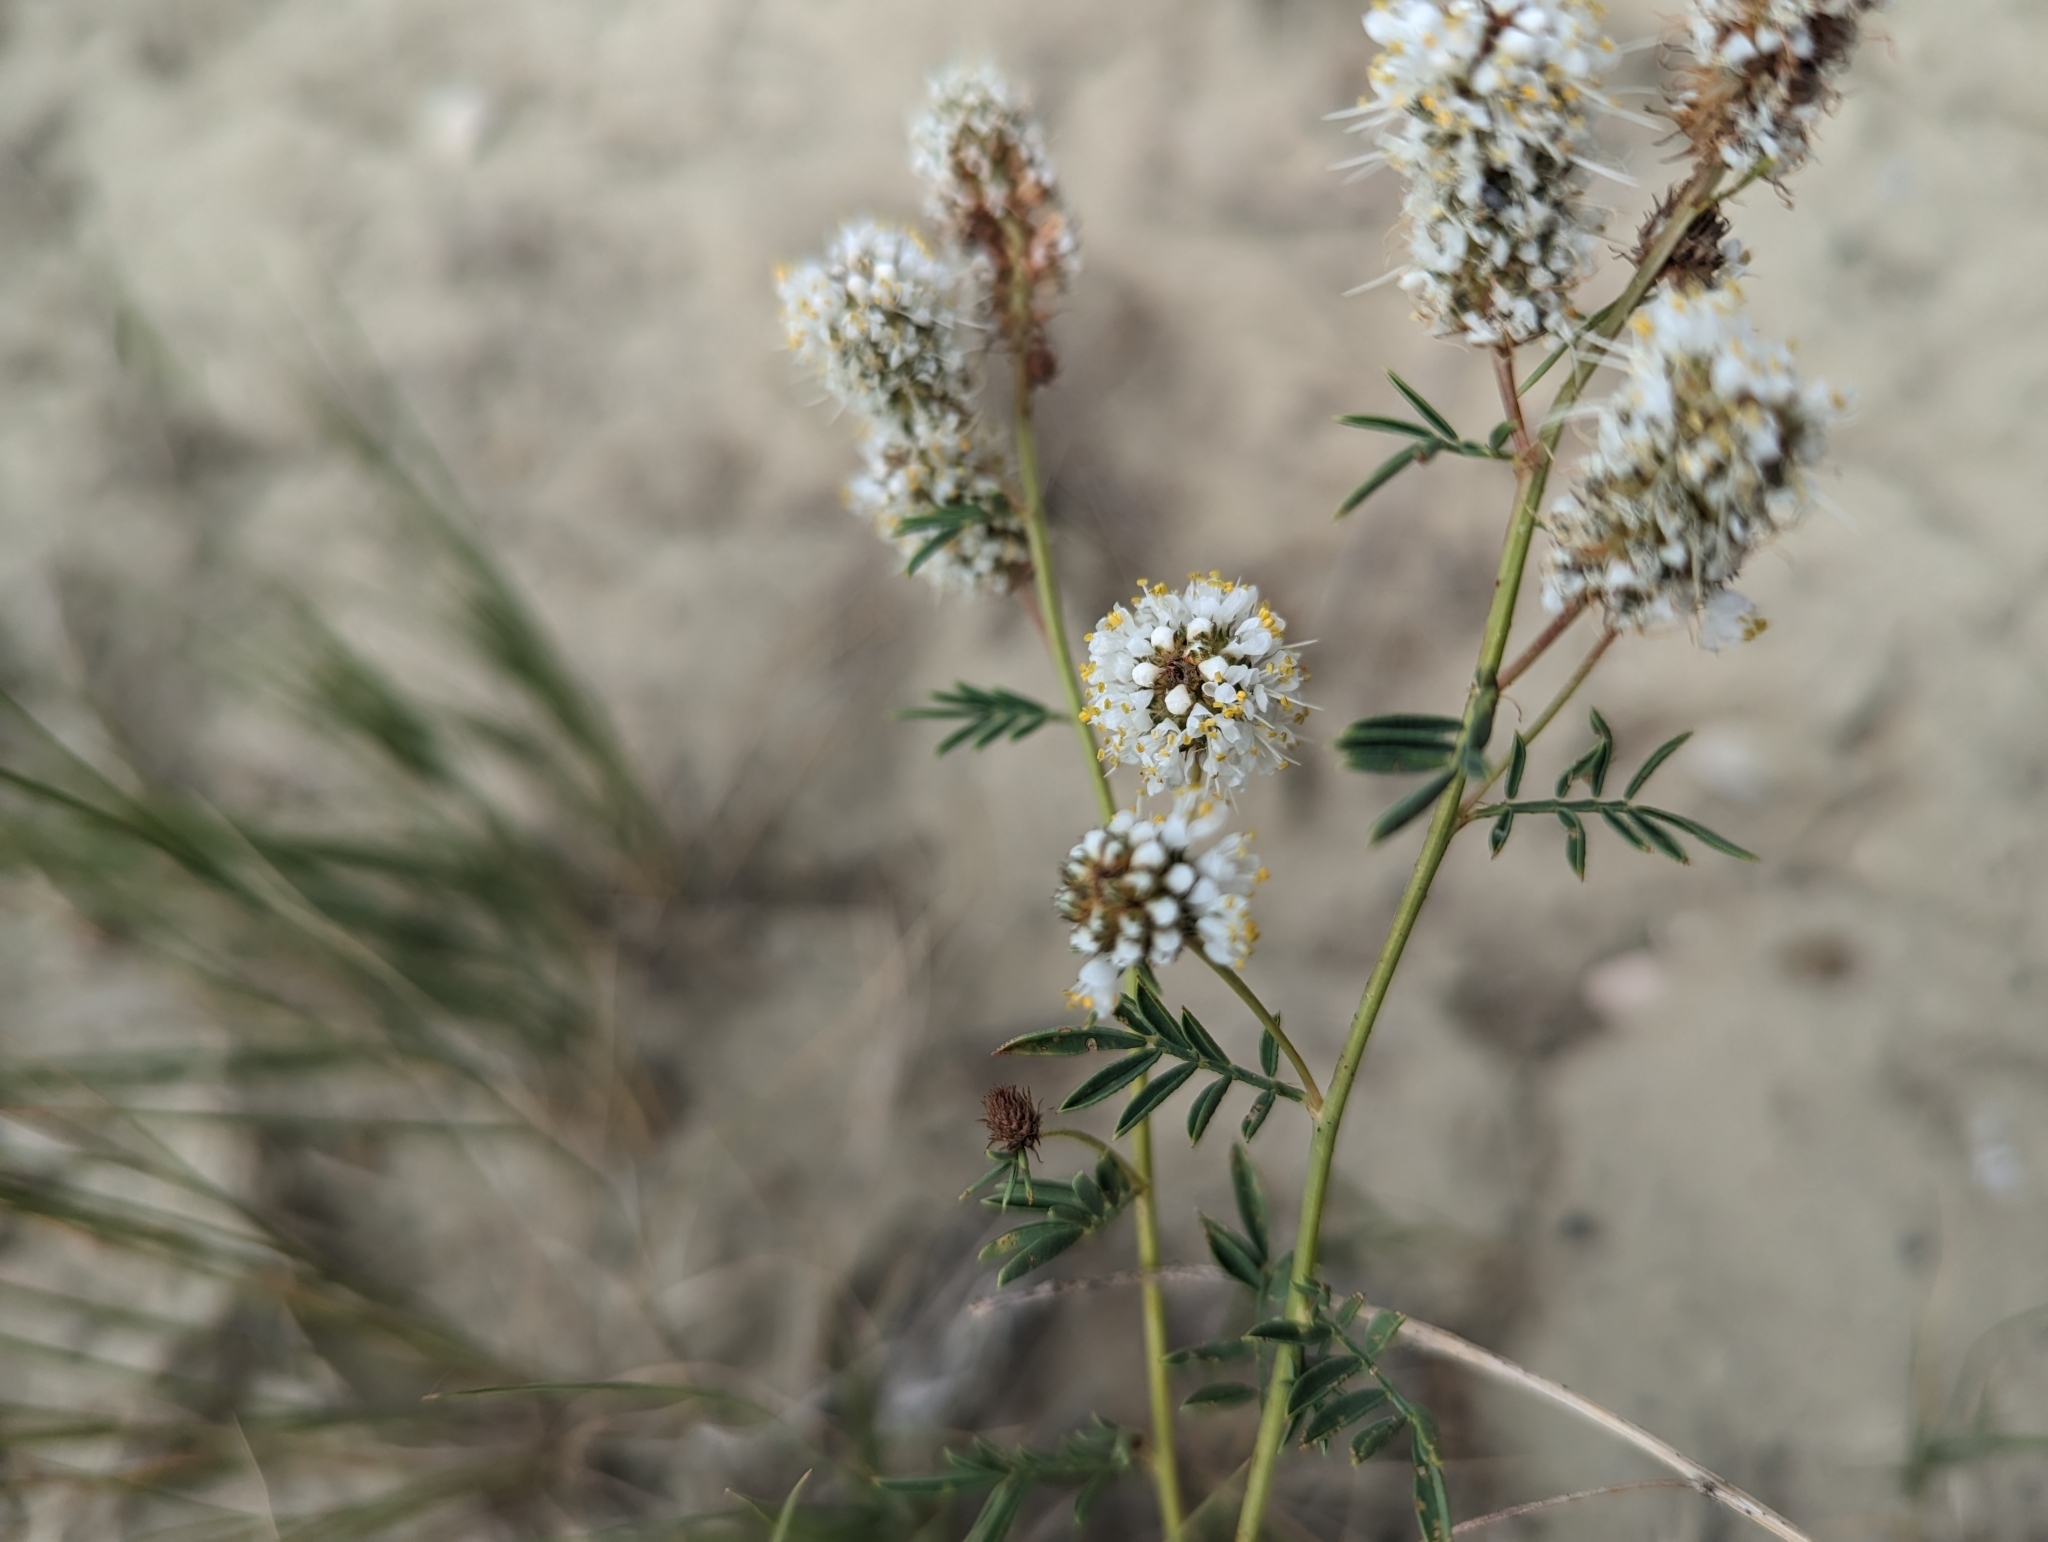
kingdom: Plantae
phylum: Tracheophyta
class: Magnoliopsida
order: Fabales
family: Fabaceae
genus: Dalea
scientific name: Dalea candida
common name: White prairie-clover
